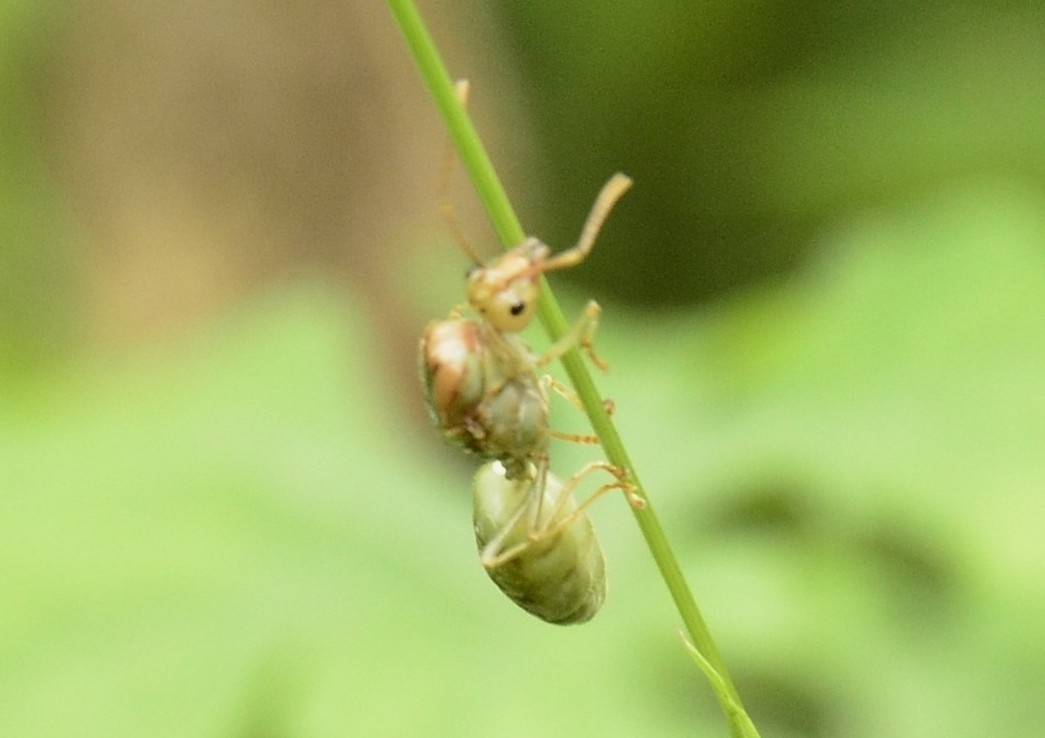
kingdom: Animalia
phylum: Arthropoda
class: Insecta
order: Hymenoptera
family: Formicidae
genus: Oecophylla
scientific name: Oecophylla smaragdina
